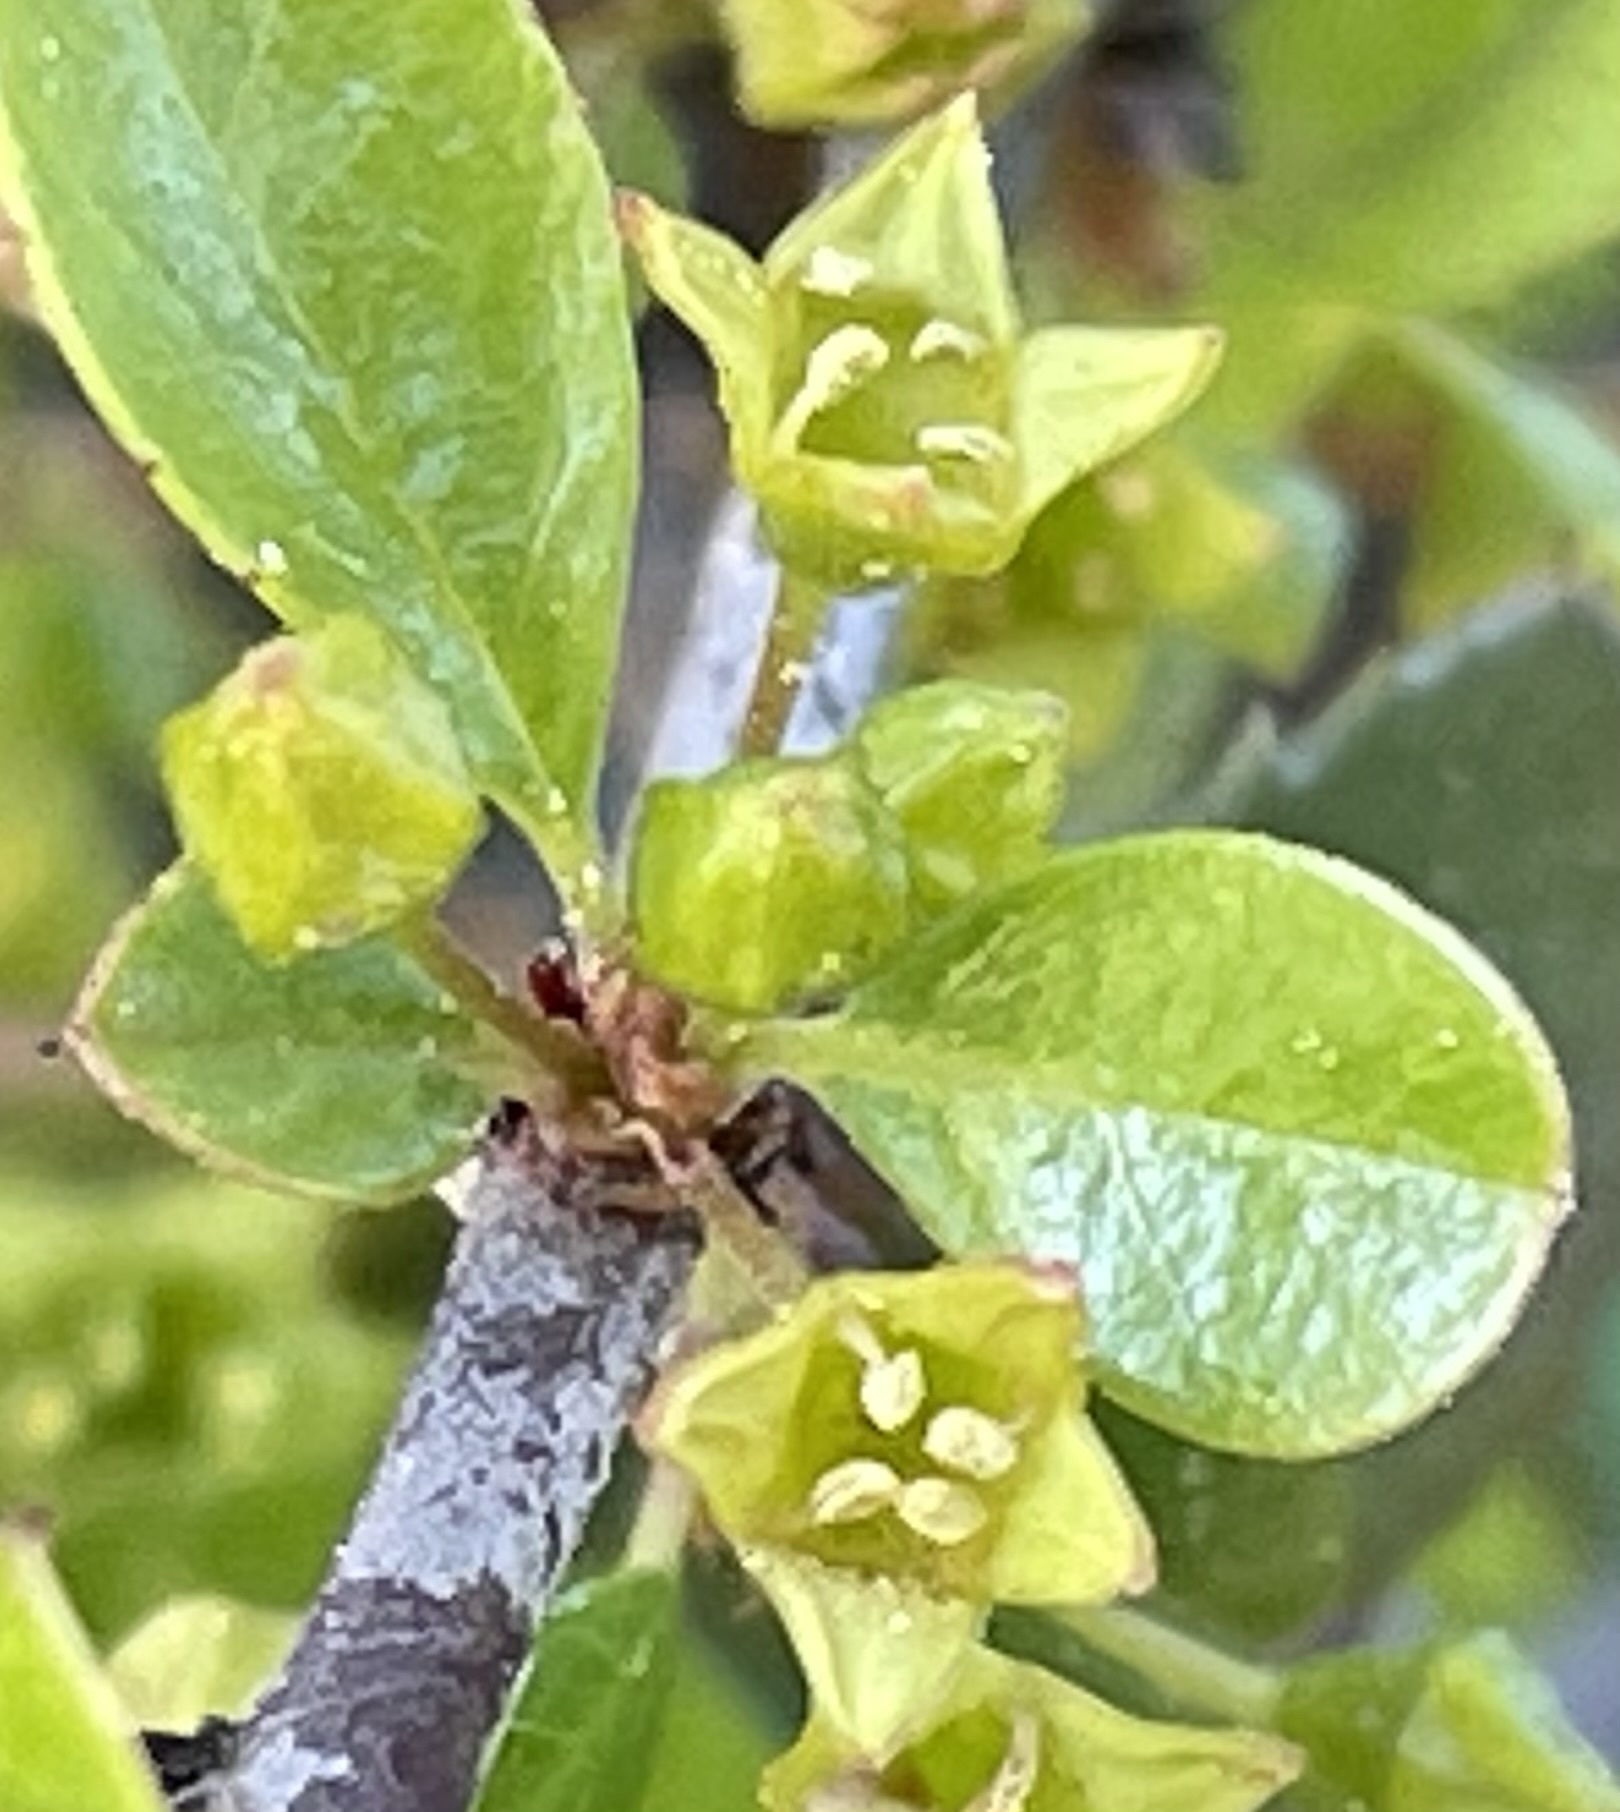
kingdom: Plantae
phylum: Tracheophyta
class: Magnoliopsida
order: Rosales
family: Rhamnaceae
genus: Endotropis
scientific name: Endotropis crocea
